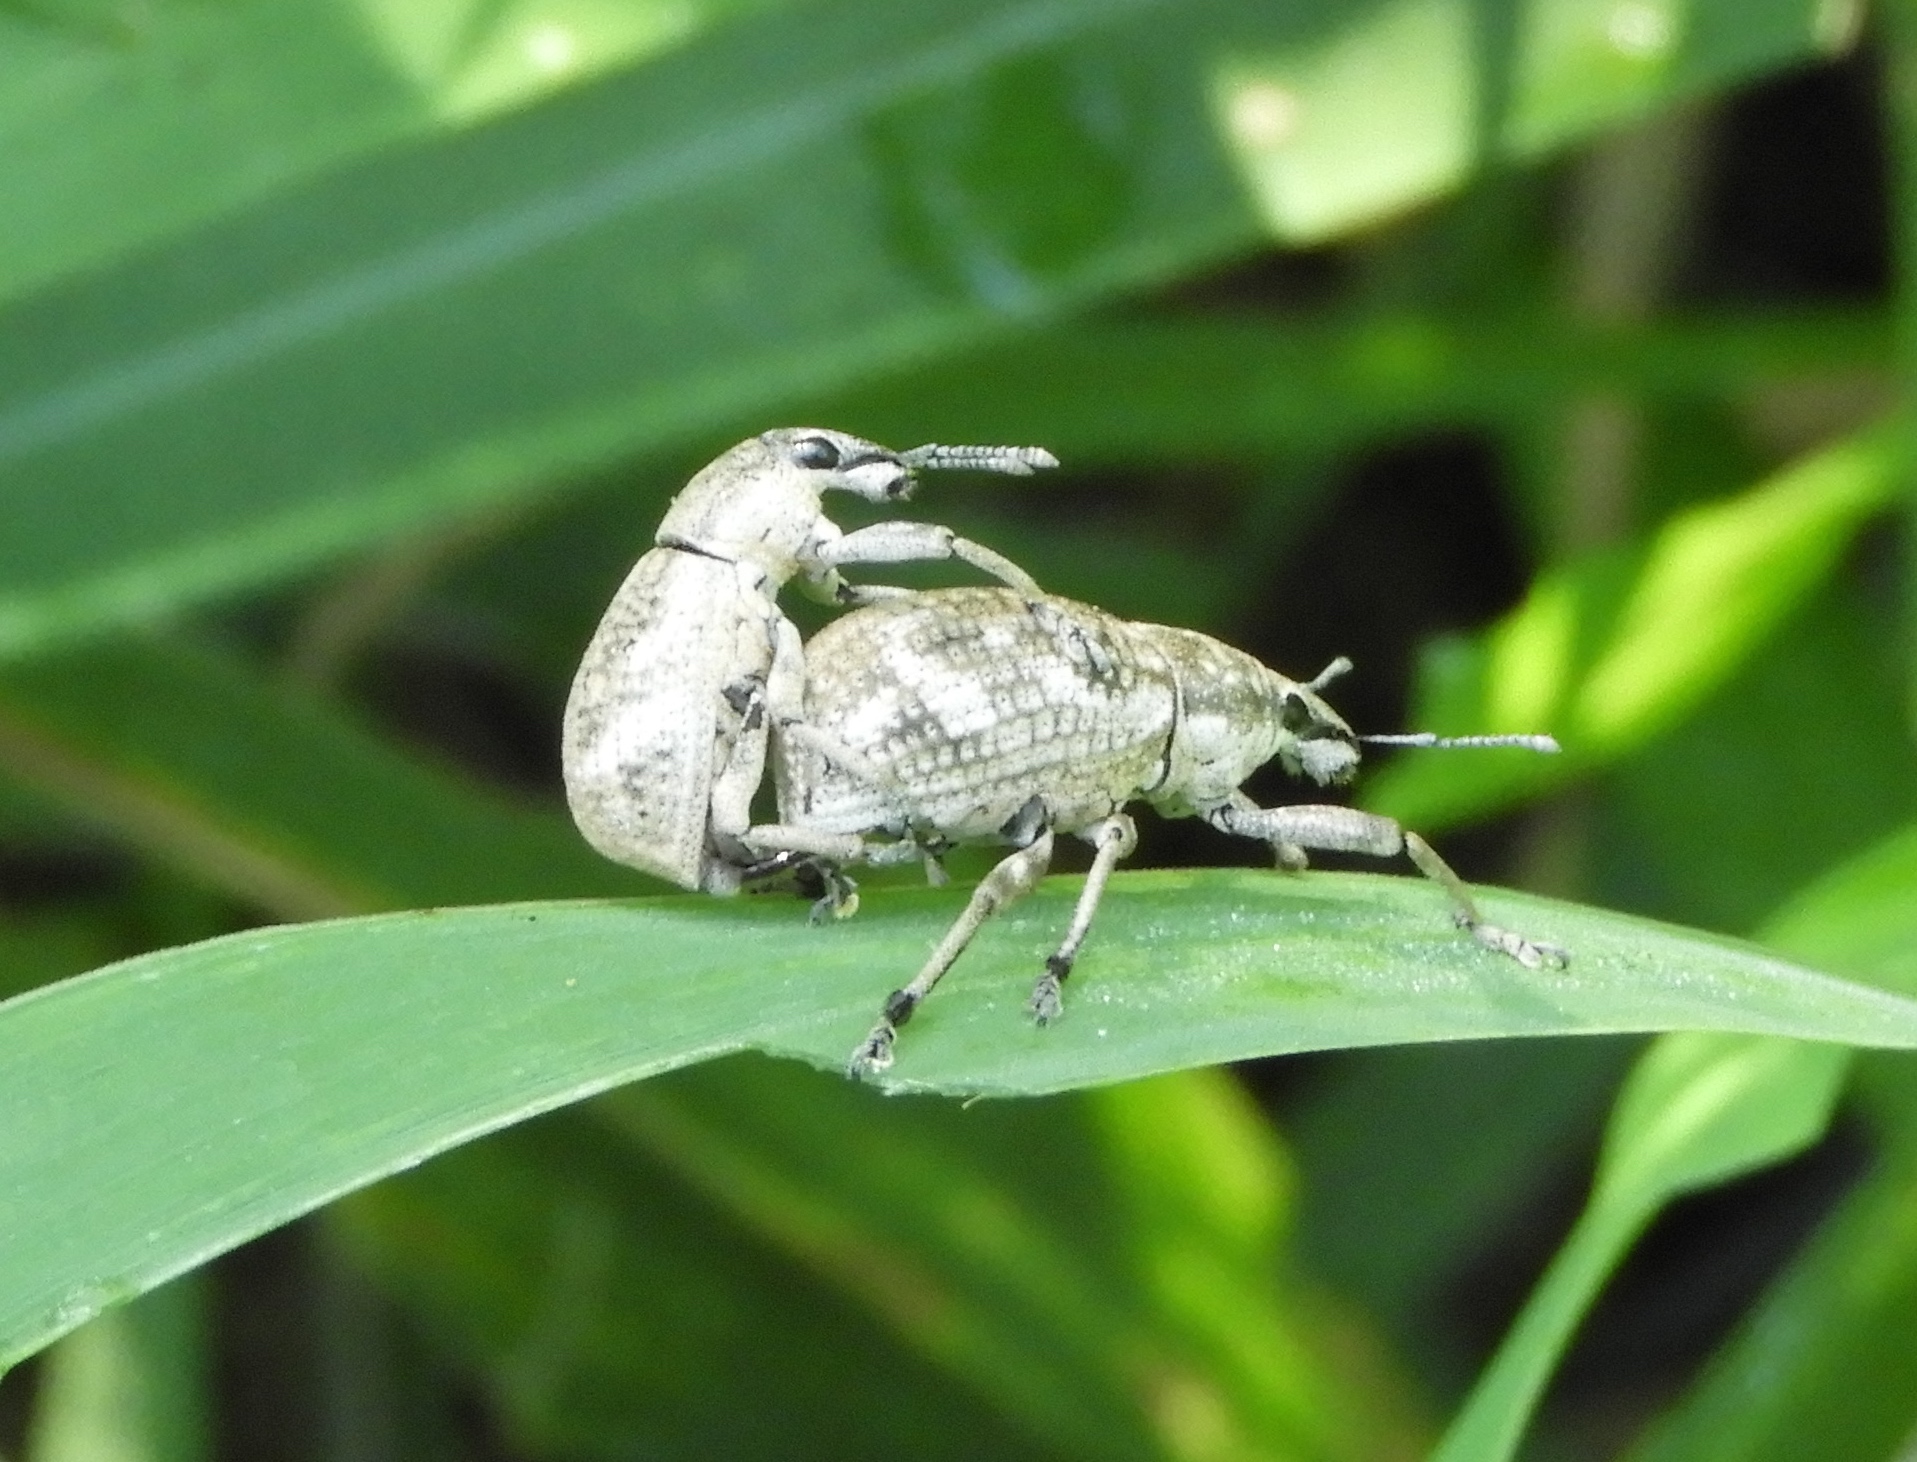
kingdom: Animalia
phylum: Arthropoda
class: Insecta
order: Coleoptera
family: Curculionidae
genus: Epicaerus
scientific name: Epicaerus
